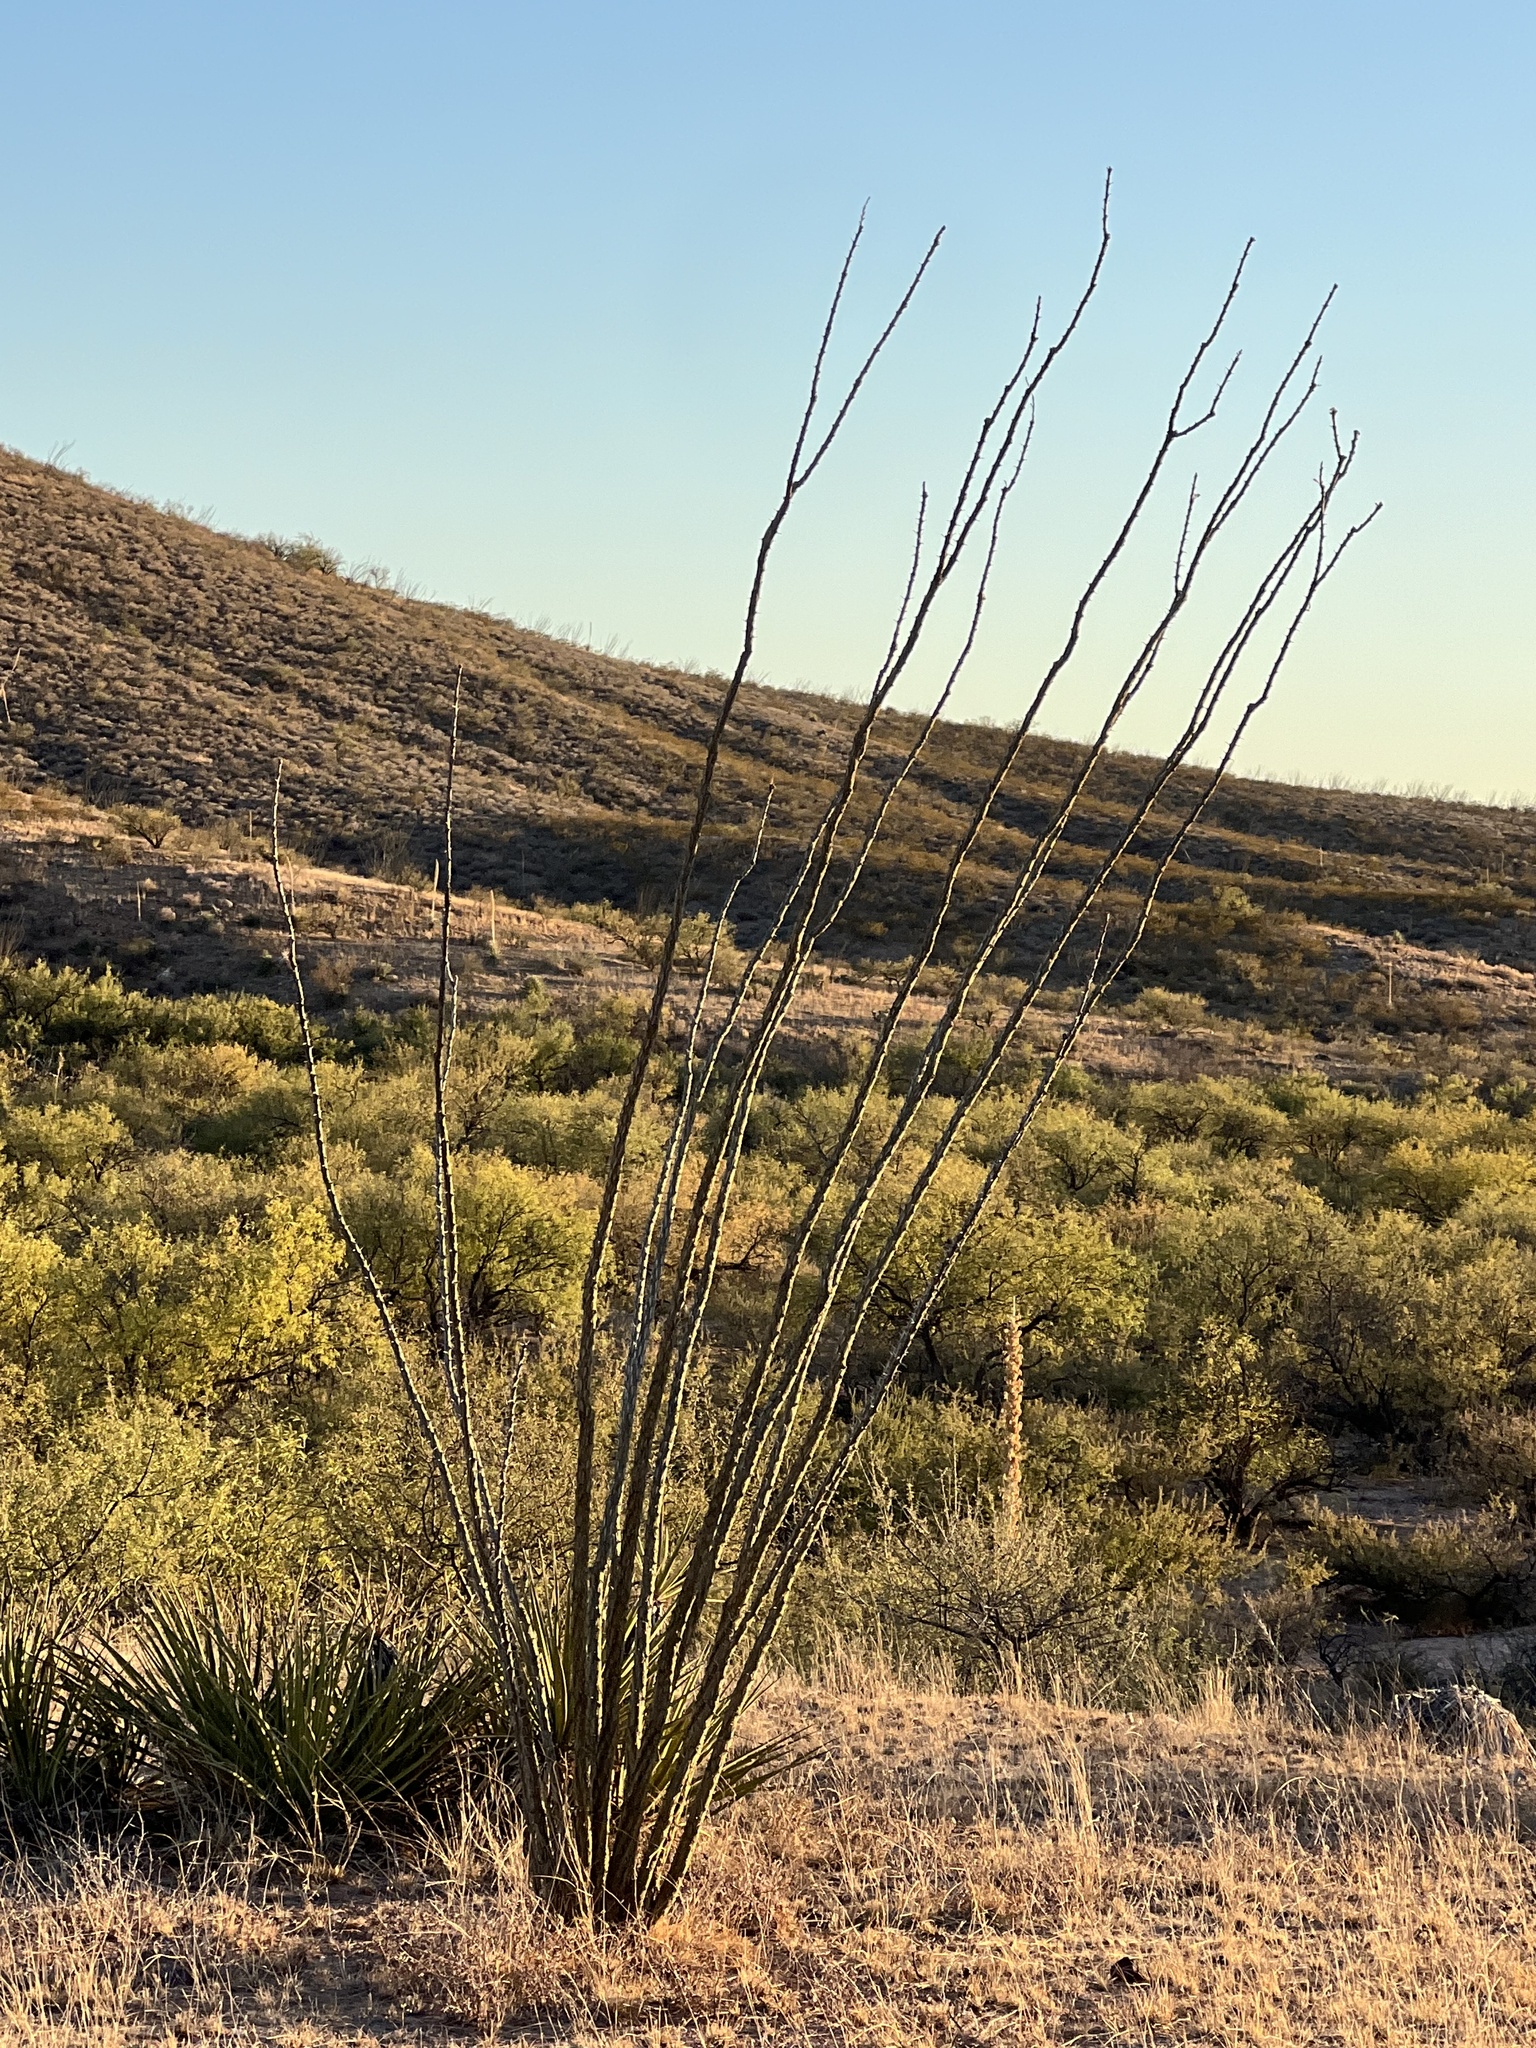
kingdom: Plantae
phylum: Tracheophyta
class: Magnoliopsida
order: Ericales
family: Fouquieriaceae
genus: Fouquieria
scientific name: Fouquieria splendens
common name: Vine-cactus
